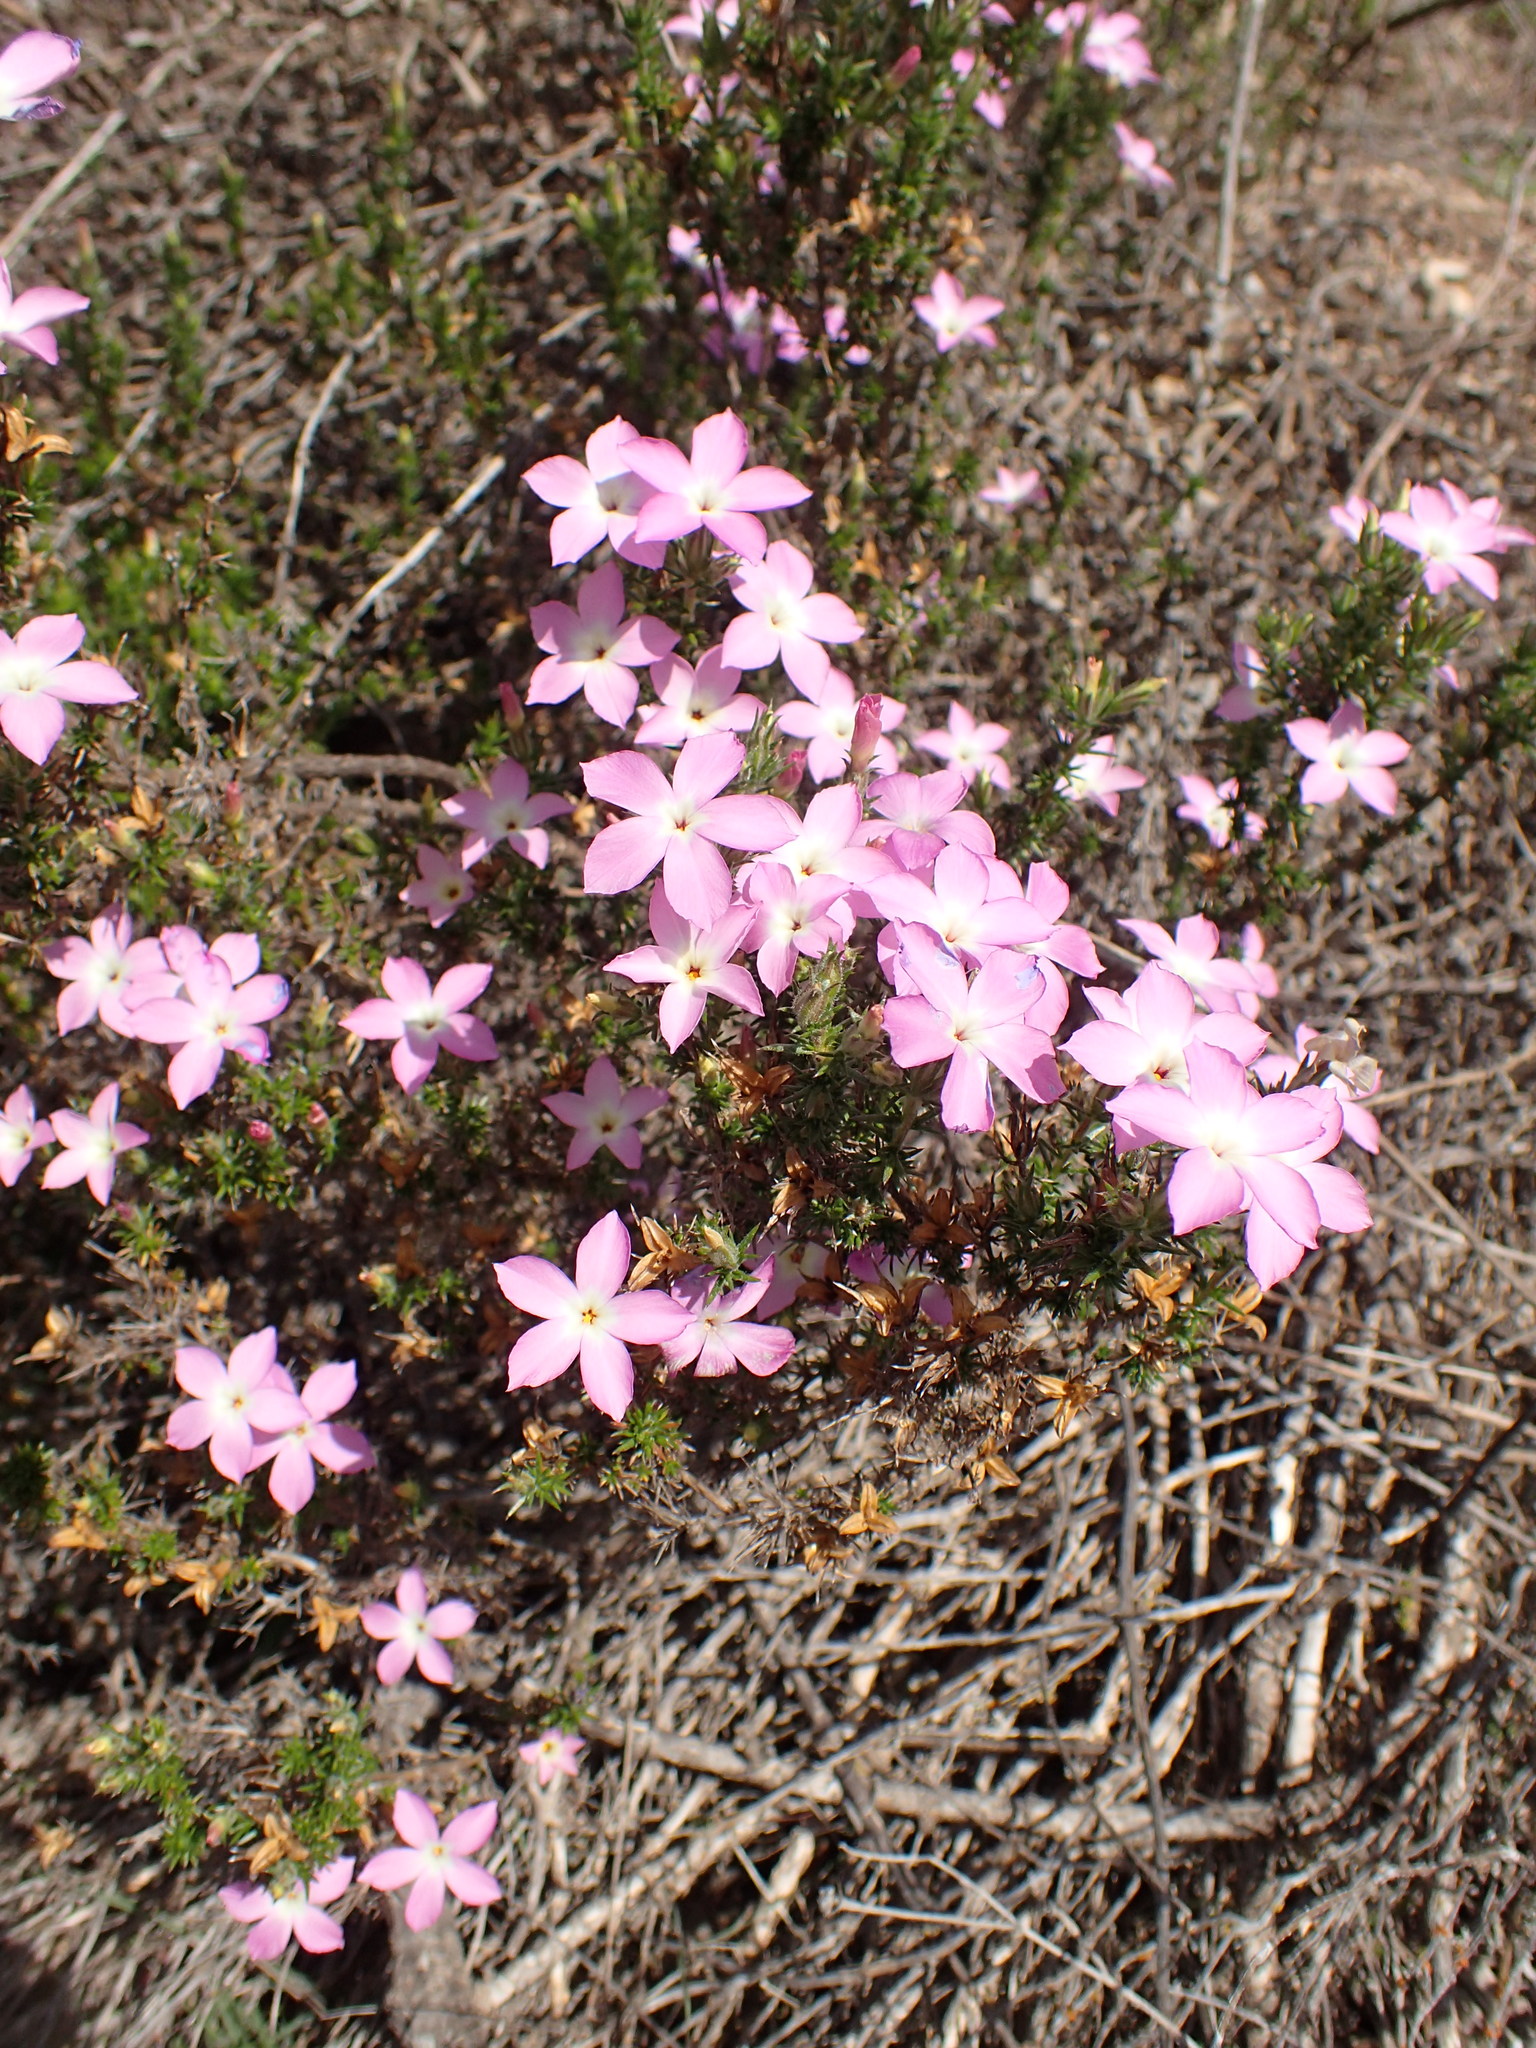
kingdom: Plantae
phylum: Tracheophyta
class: Magnoliopsida
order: Ericales
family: Polemoniaceae
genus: Linanthus
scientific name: Linanthus californicus
